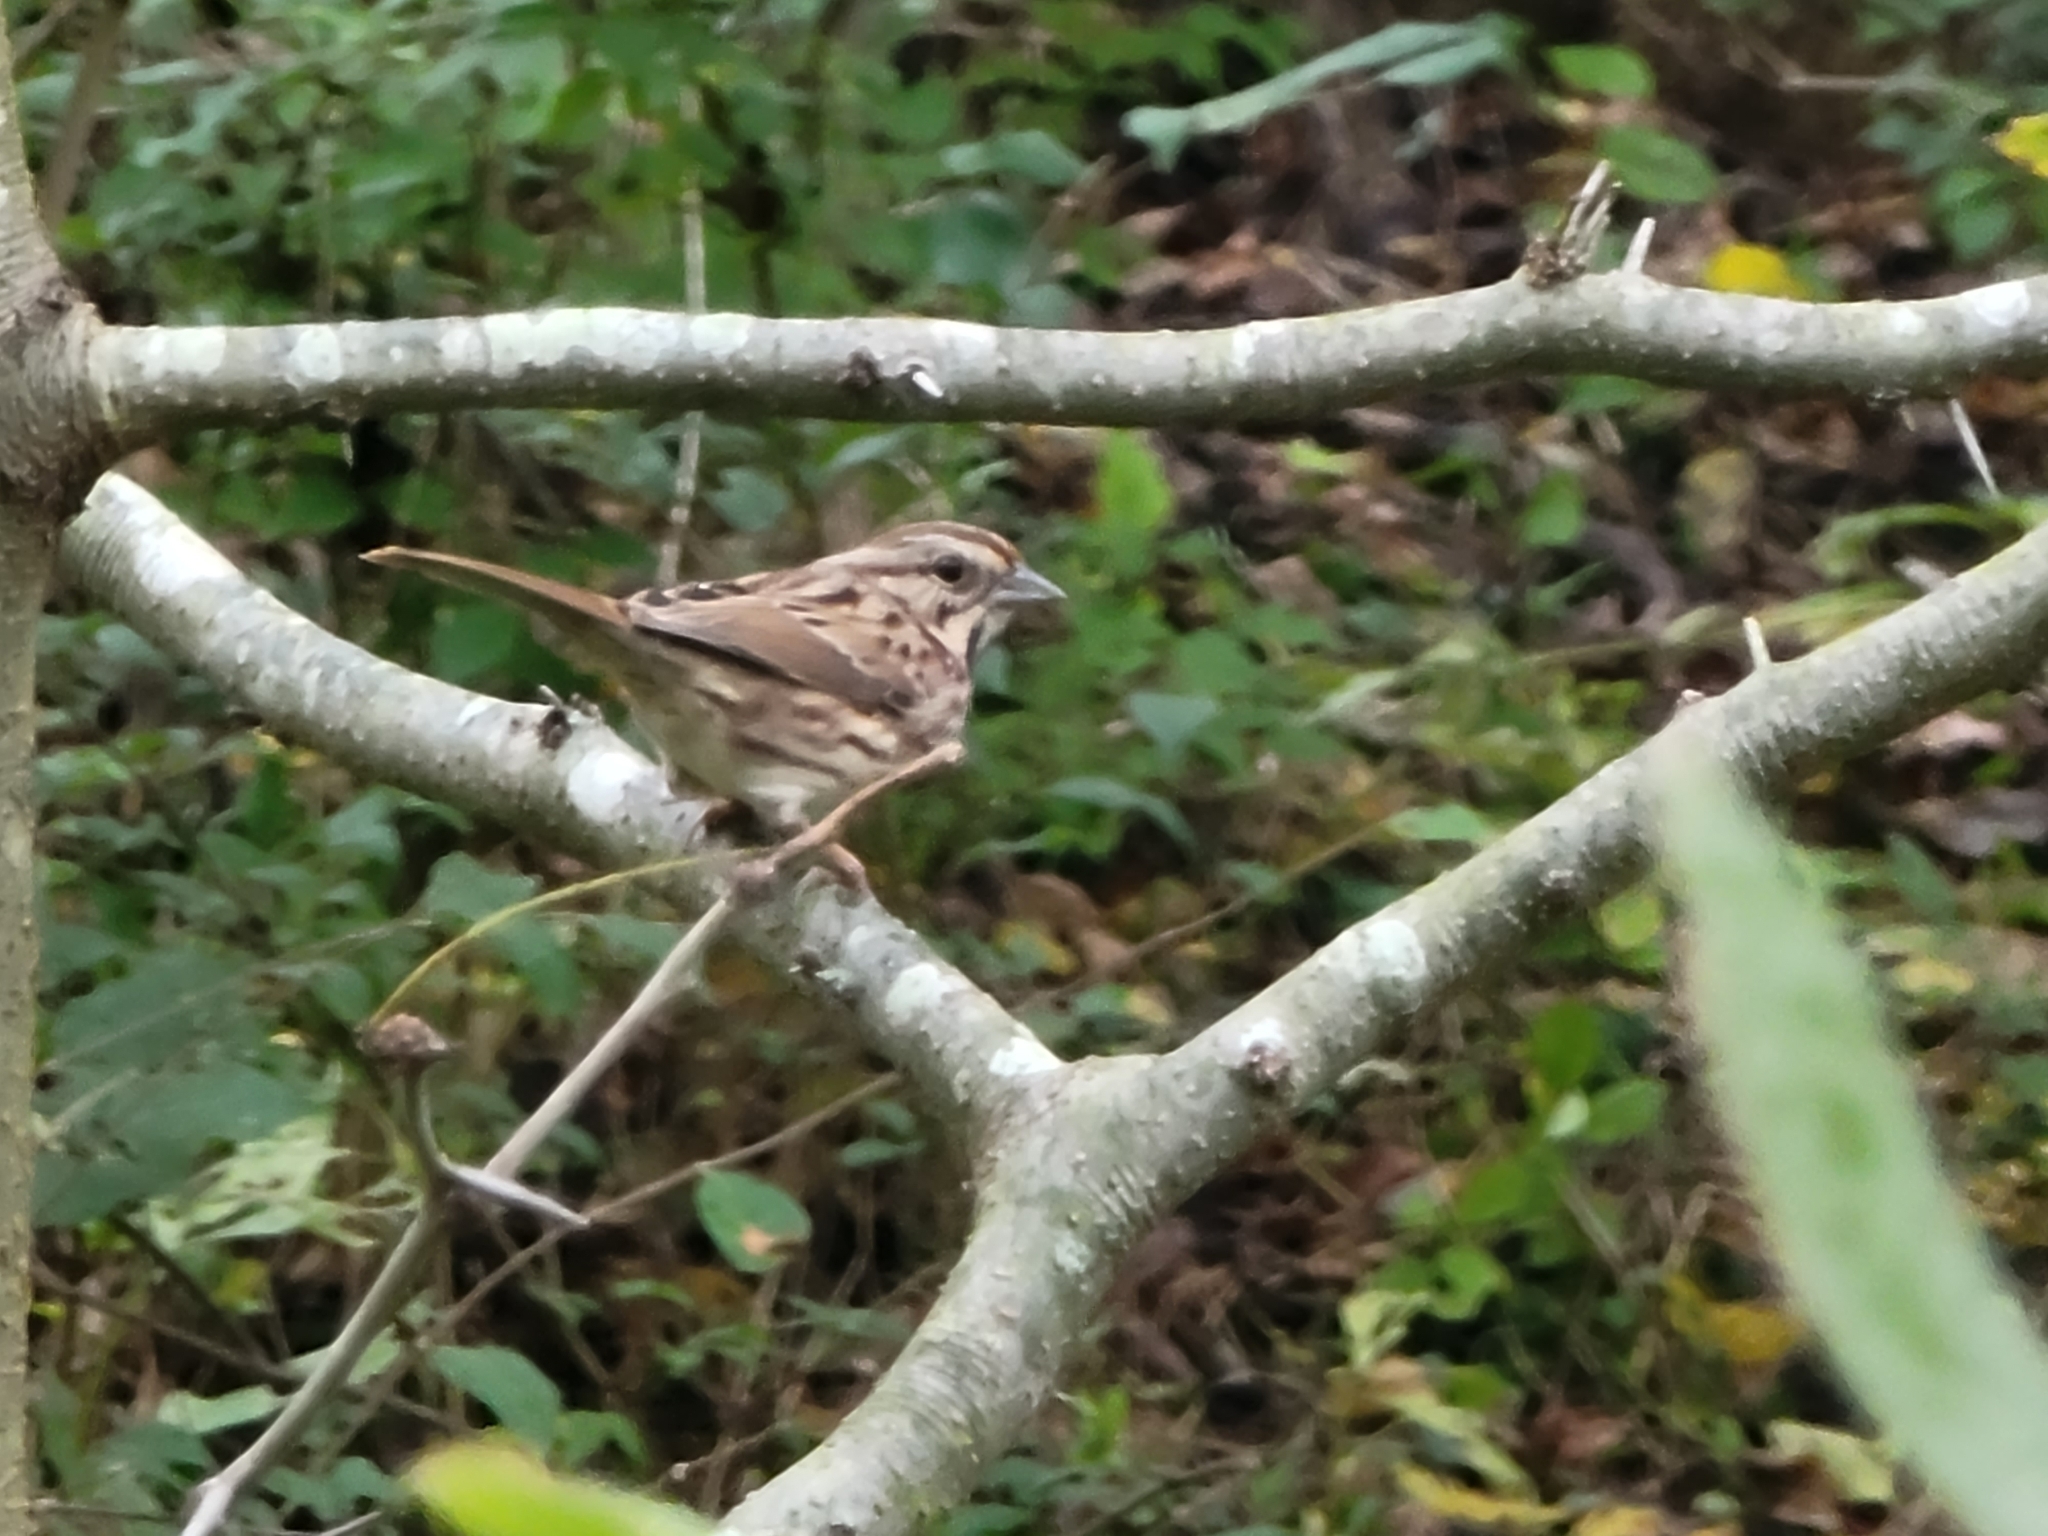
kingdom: Animalia
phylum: Chordata
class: Aves
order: Passeriformes
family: Passerellidae
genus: Melospiza
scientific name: Melospiza melodia
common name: Song sparrow
